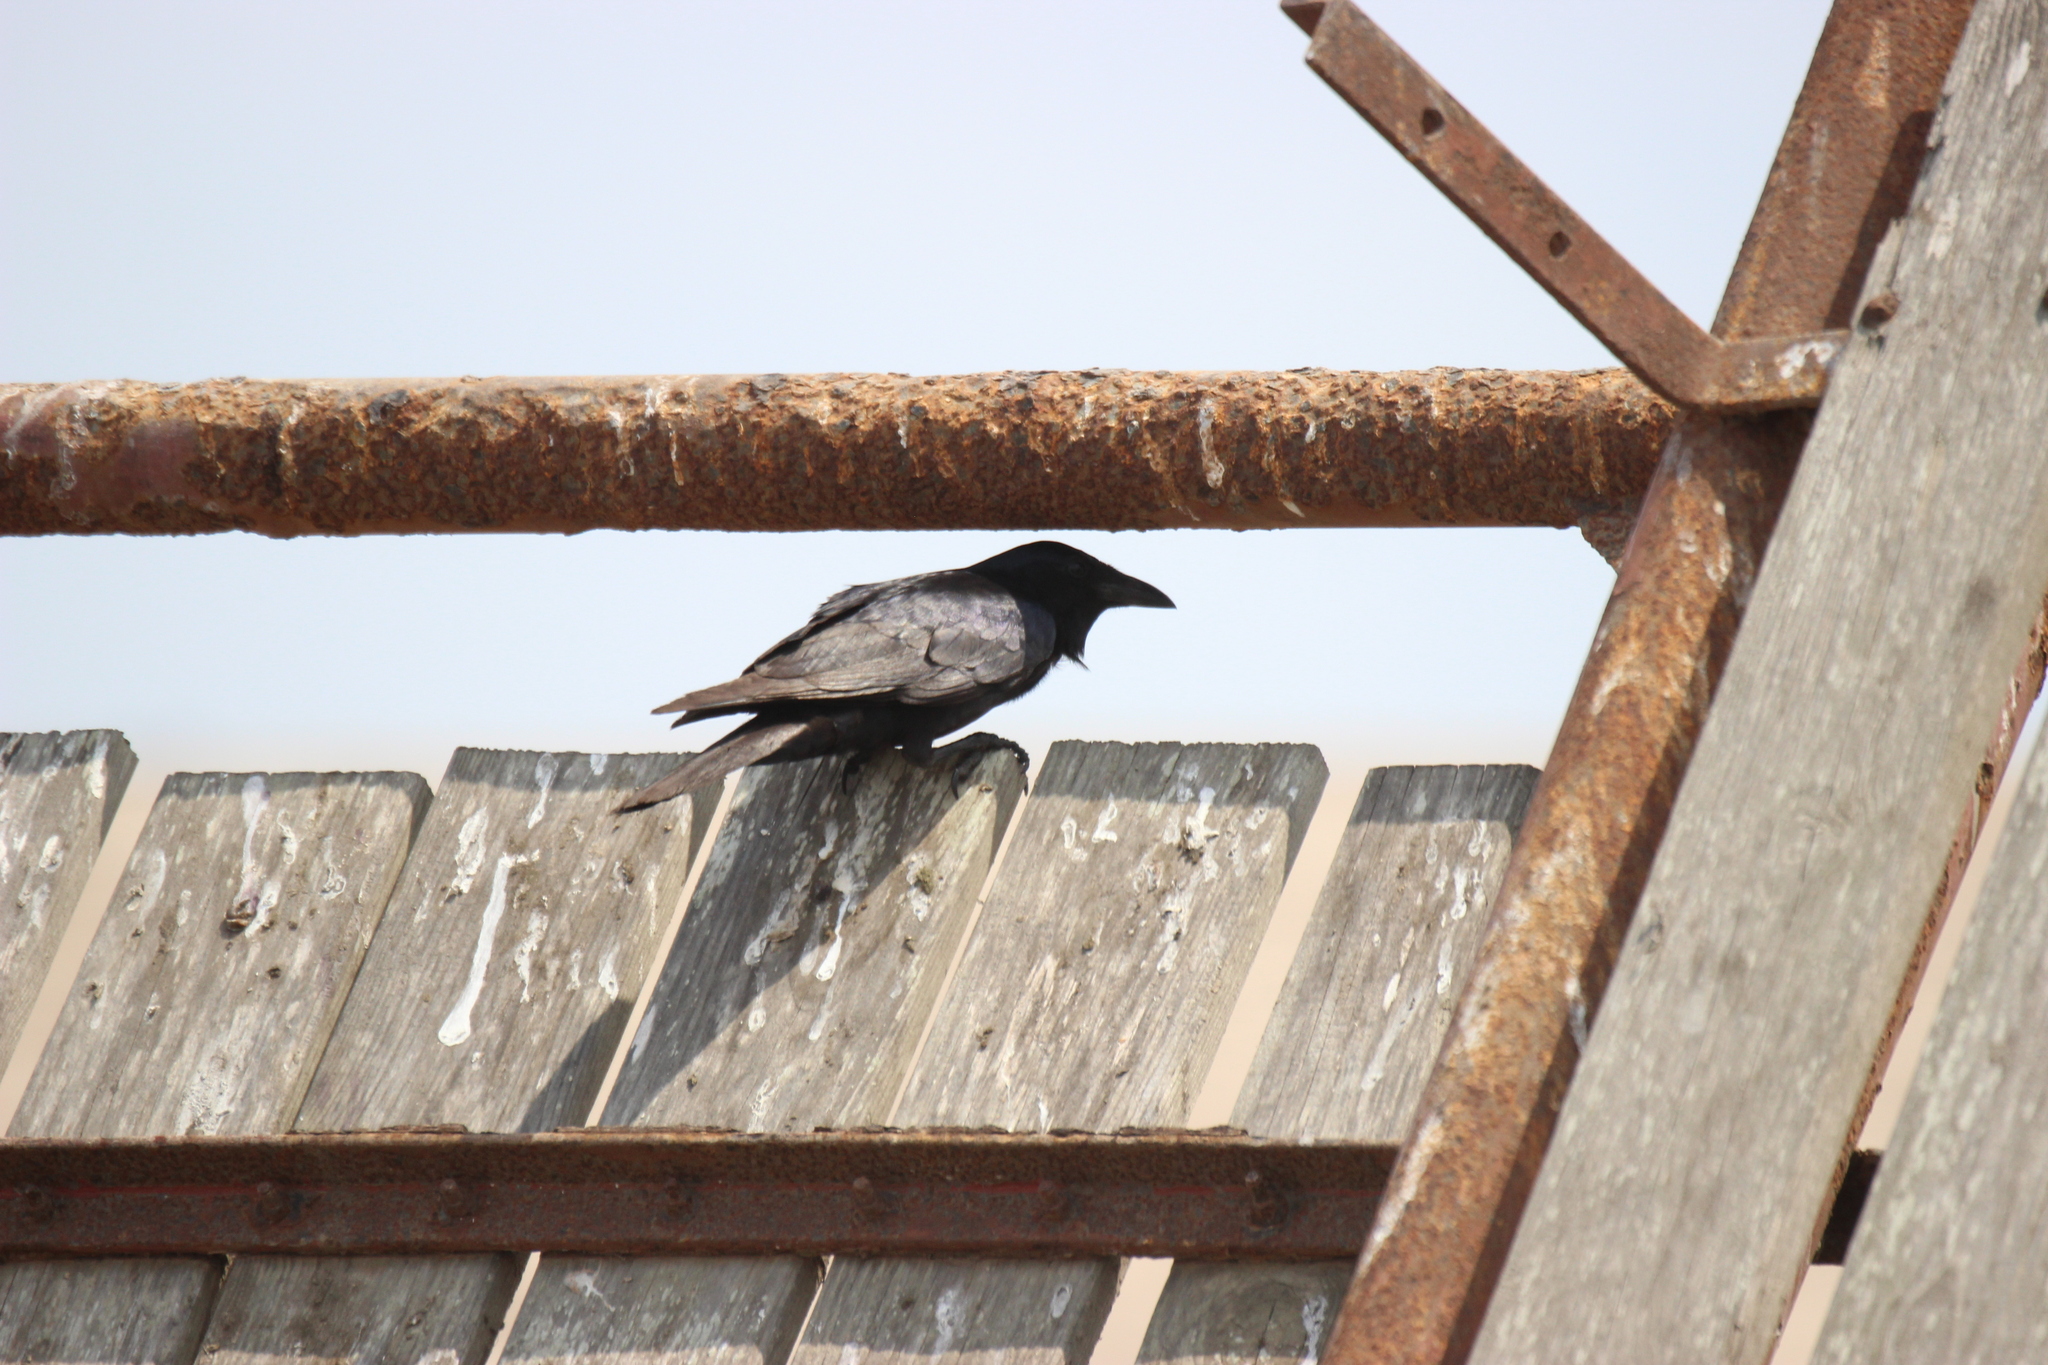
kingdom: Animalia
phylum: Chordata
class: Aves
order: Passeriformes
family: Corvidae
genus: Corvus
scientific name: Corvus imparatus
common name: Tamaulipas crow
